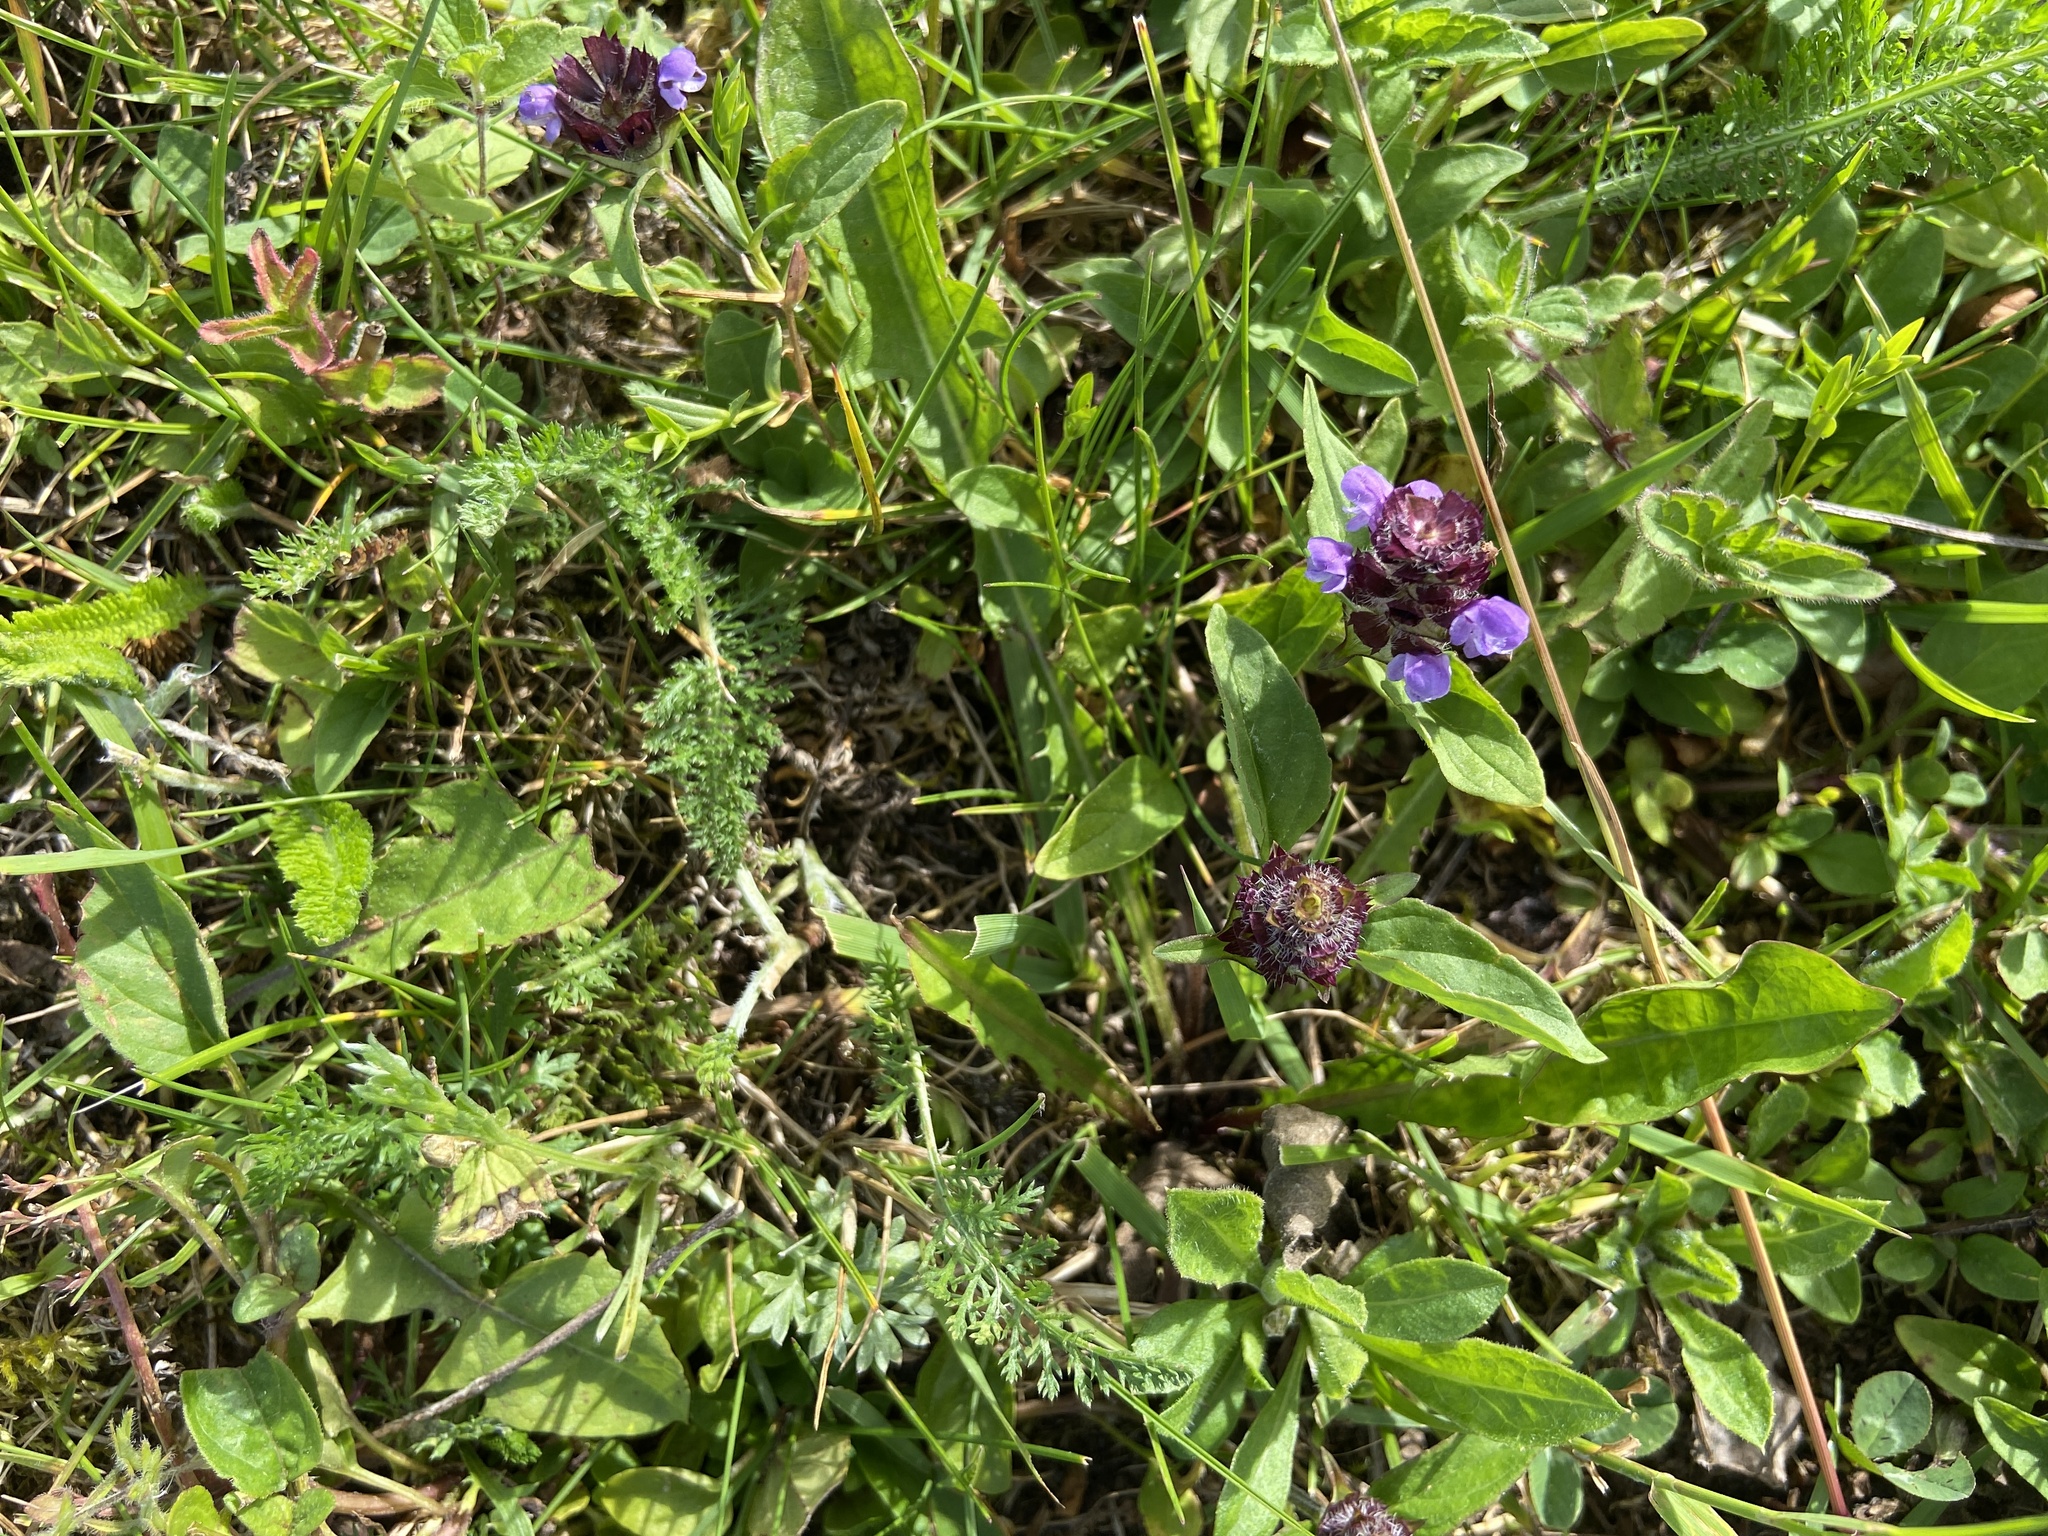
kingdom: Plantae
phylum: Tracheophyta
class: Magnoliopsida
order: Lamiales
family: Lamiaceae
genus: Prunella
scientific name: Prunella vulgaris
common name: Heal-all
